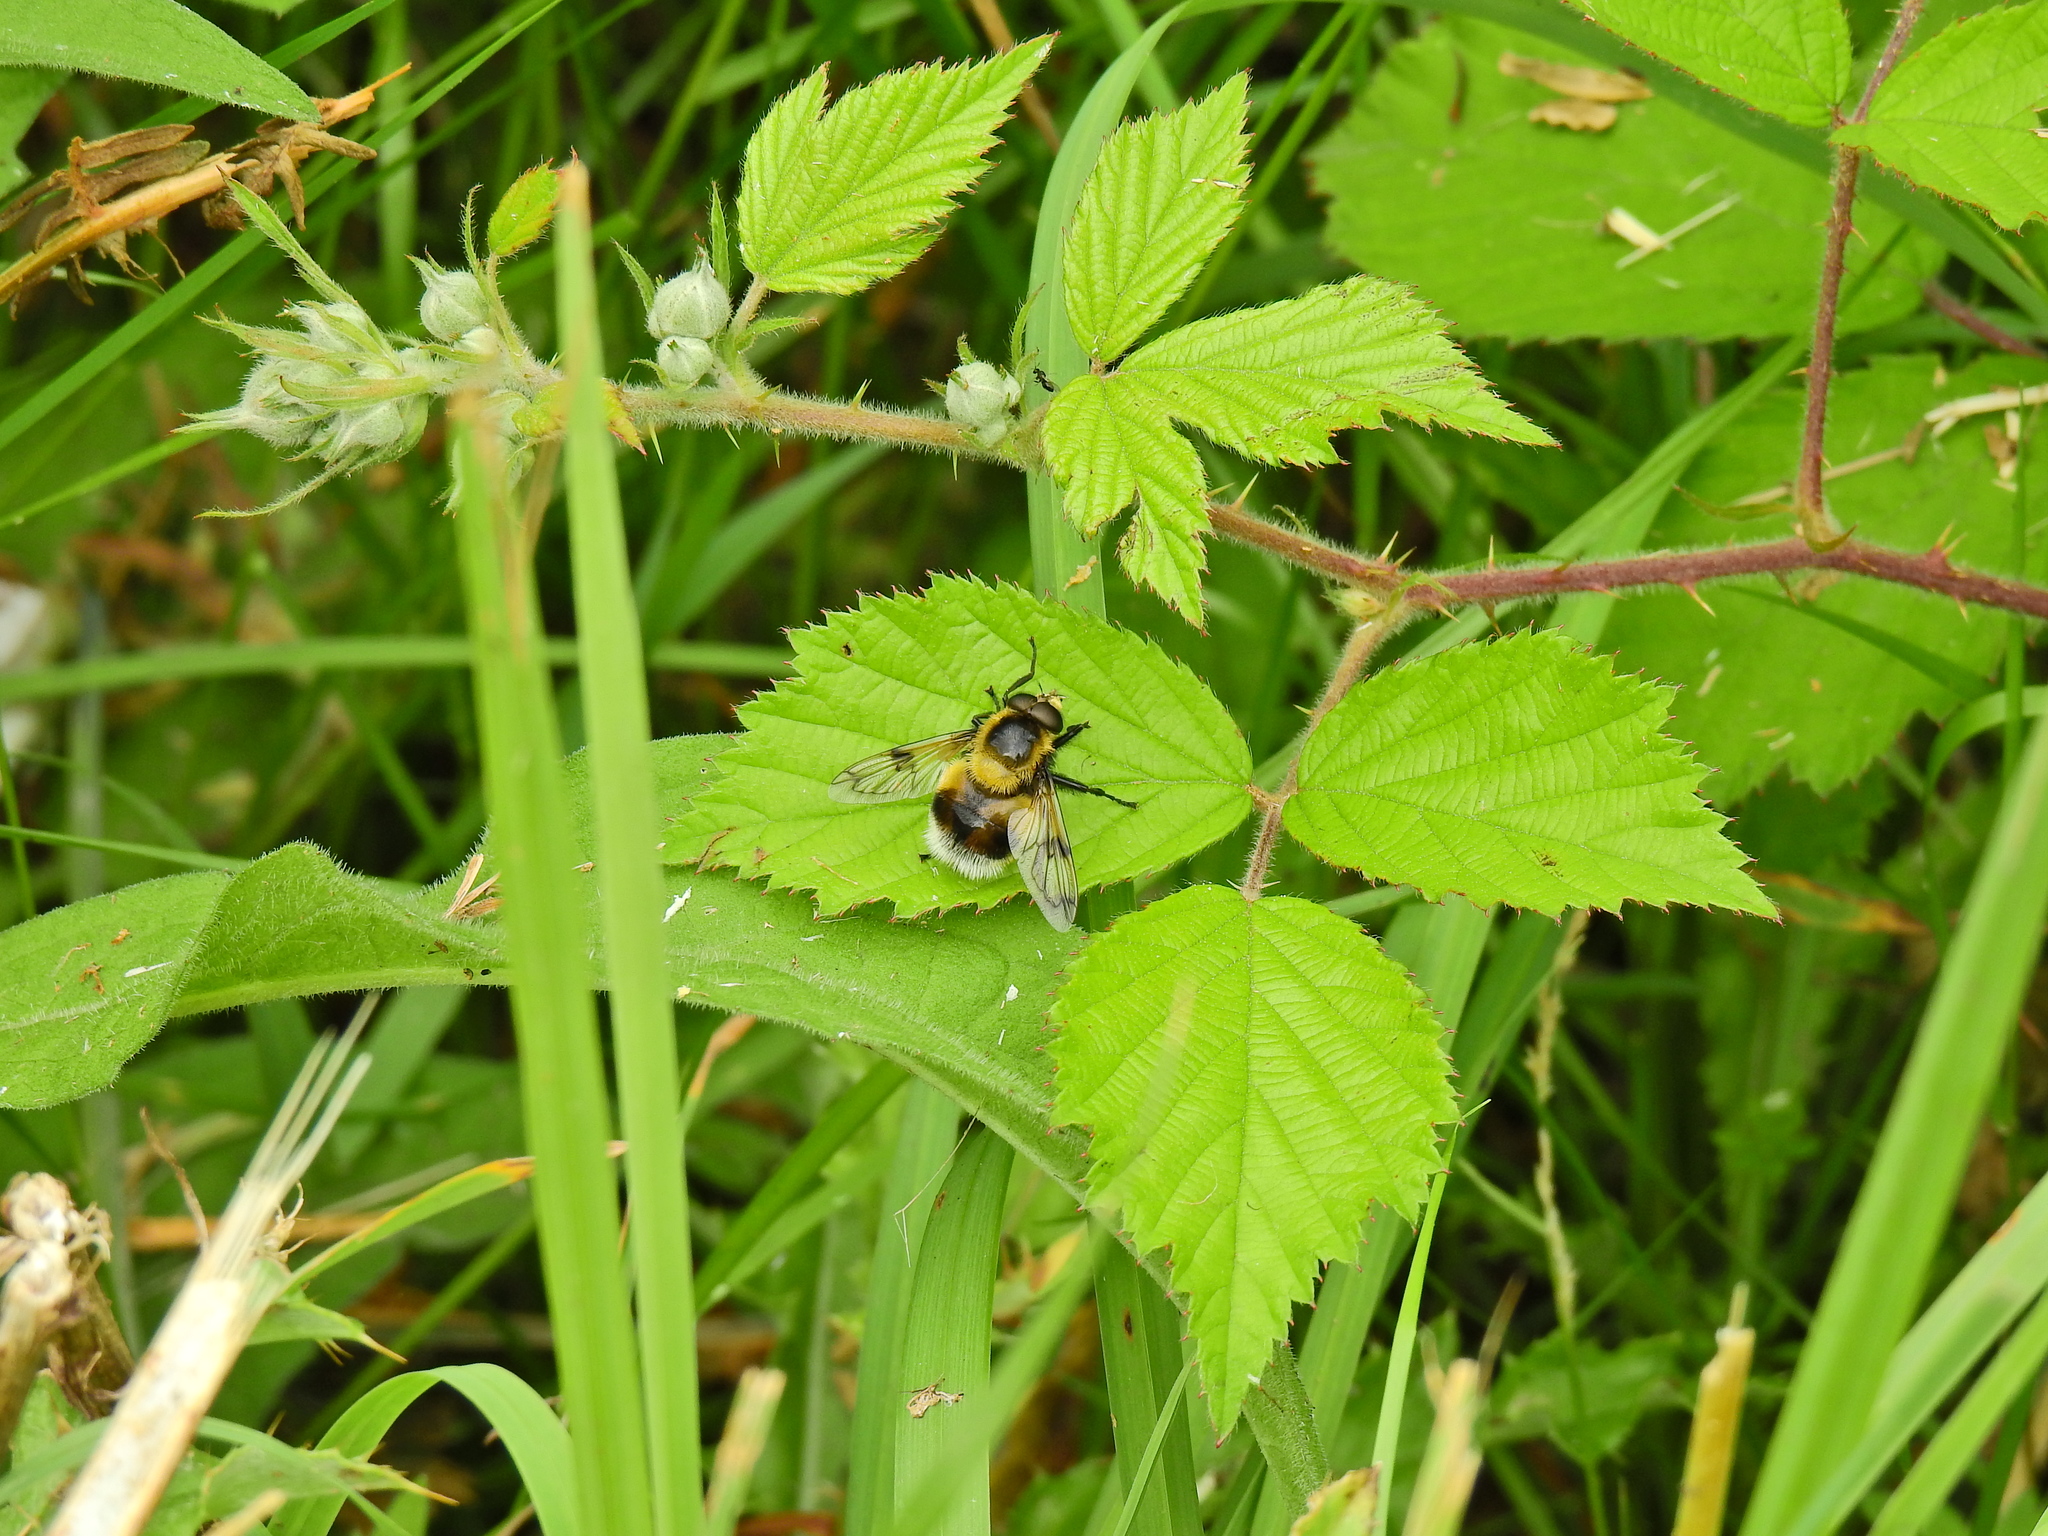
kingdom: Animalia
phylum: Arthropoda
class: Insecta
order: Diptera
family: Syrphidae
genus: Volucella
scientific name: Volucella bombylans
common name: Bumble bee hover fly
